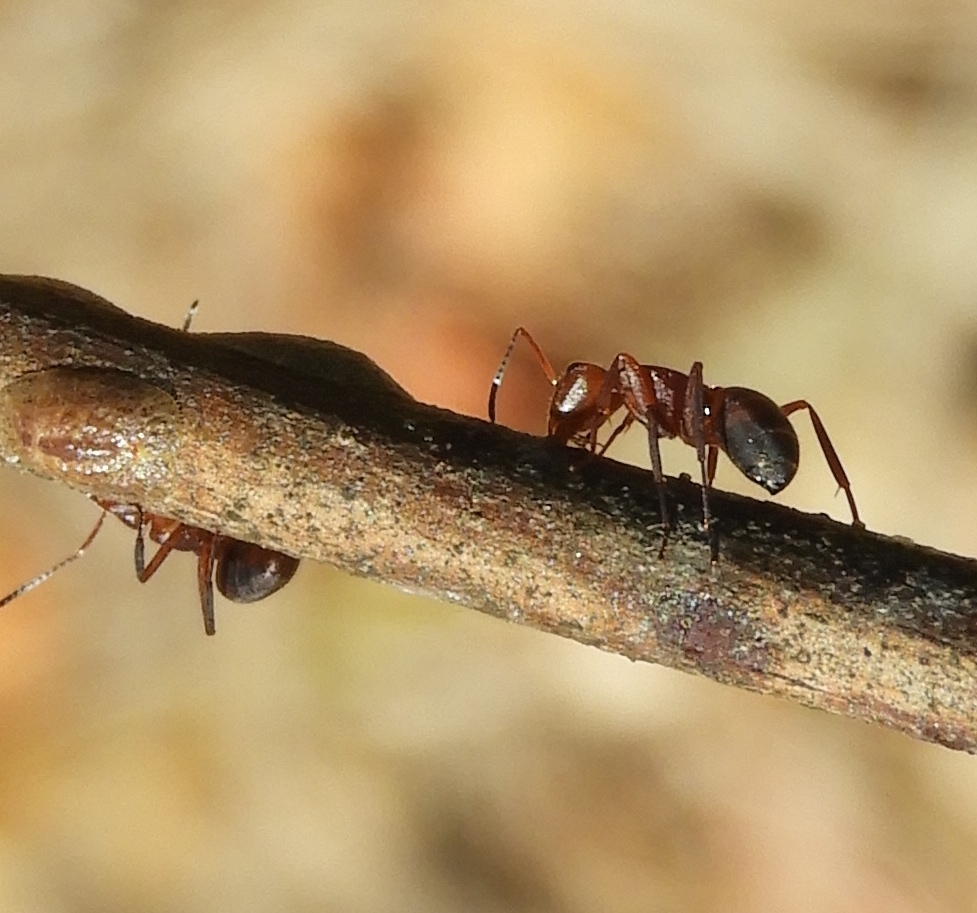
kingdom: Animalia
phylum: Arthropoda
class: Insecta
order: Hymenoptera
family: Formicidae
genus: Camponotus
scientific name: Camponotus rectangularis
